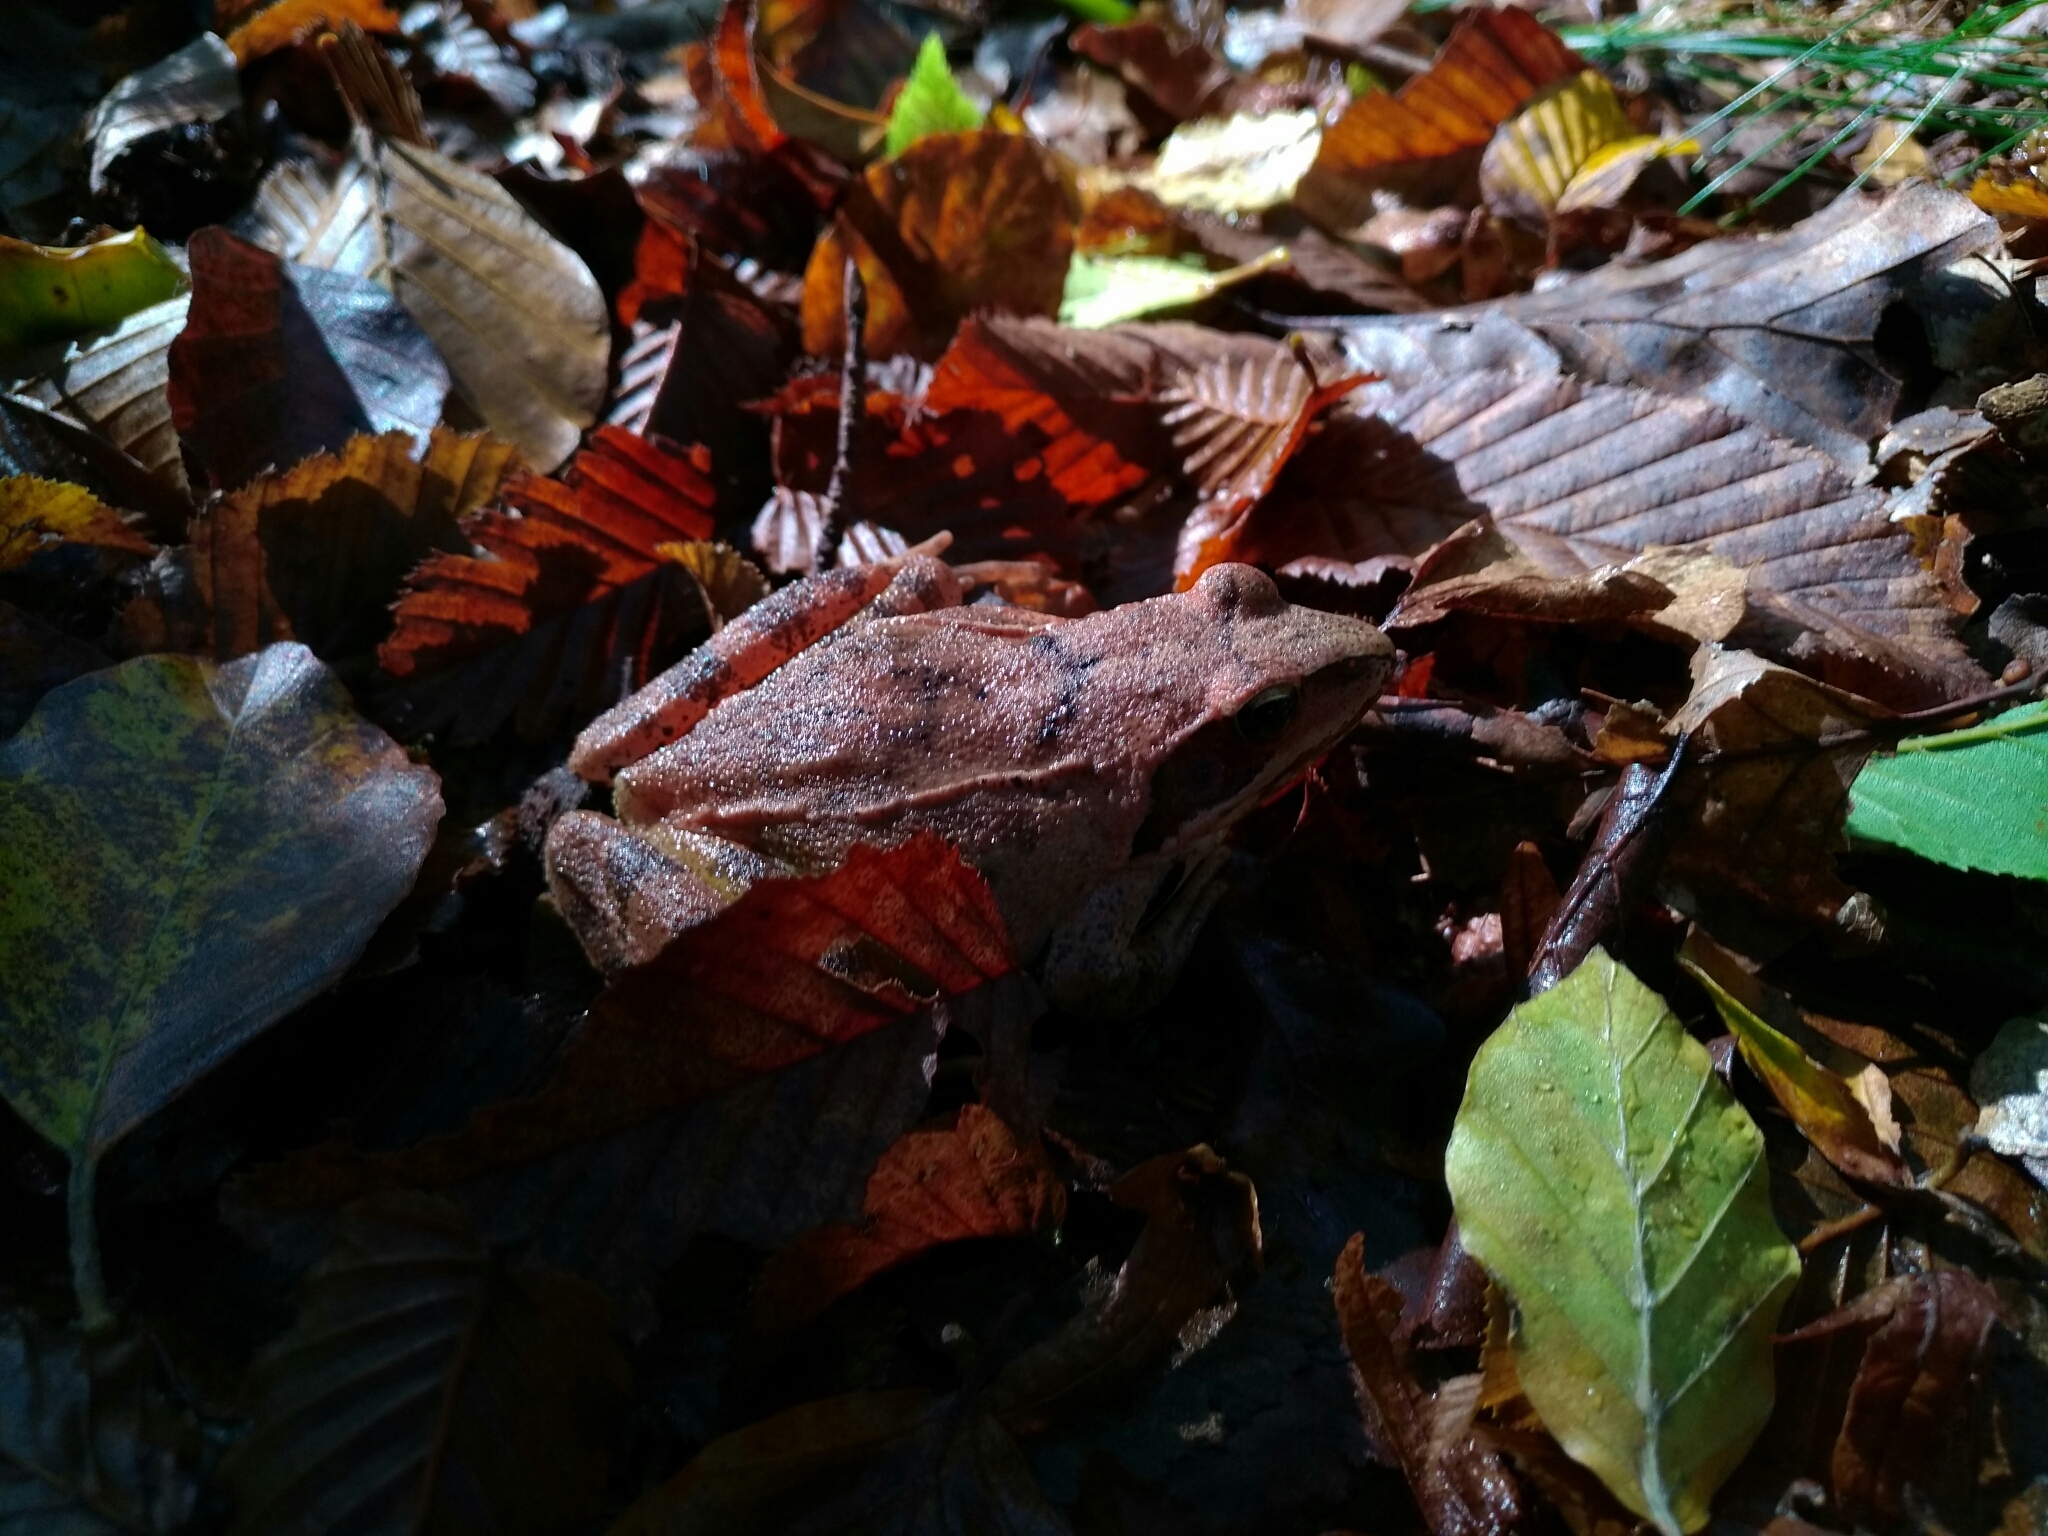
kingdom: Animalia
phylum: Chordata
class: Amphibia
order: Anura
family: Ranidae
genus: Rana
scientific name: Rana dalmatina
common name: Agile frog
